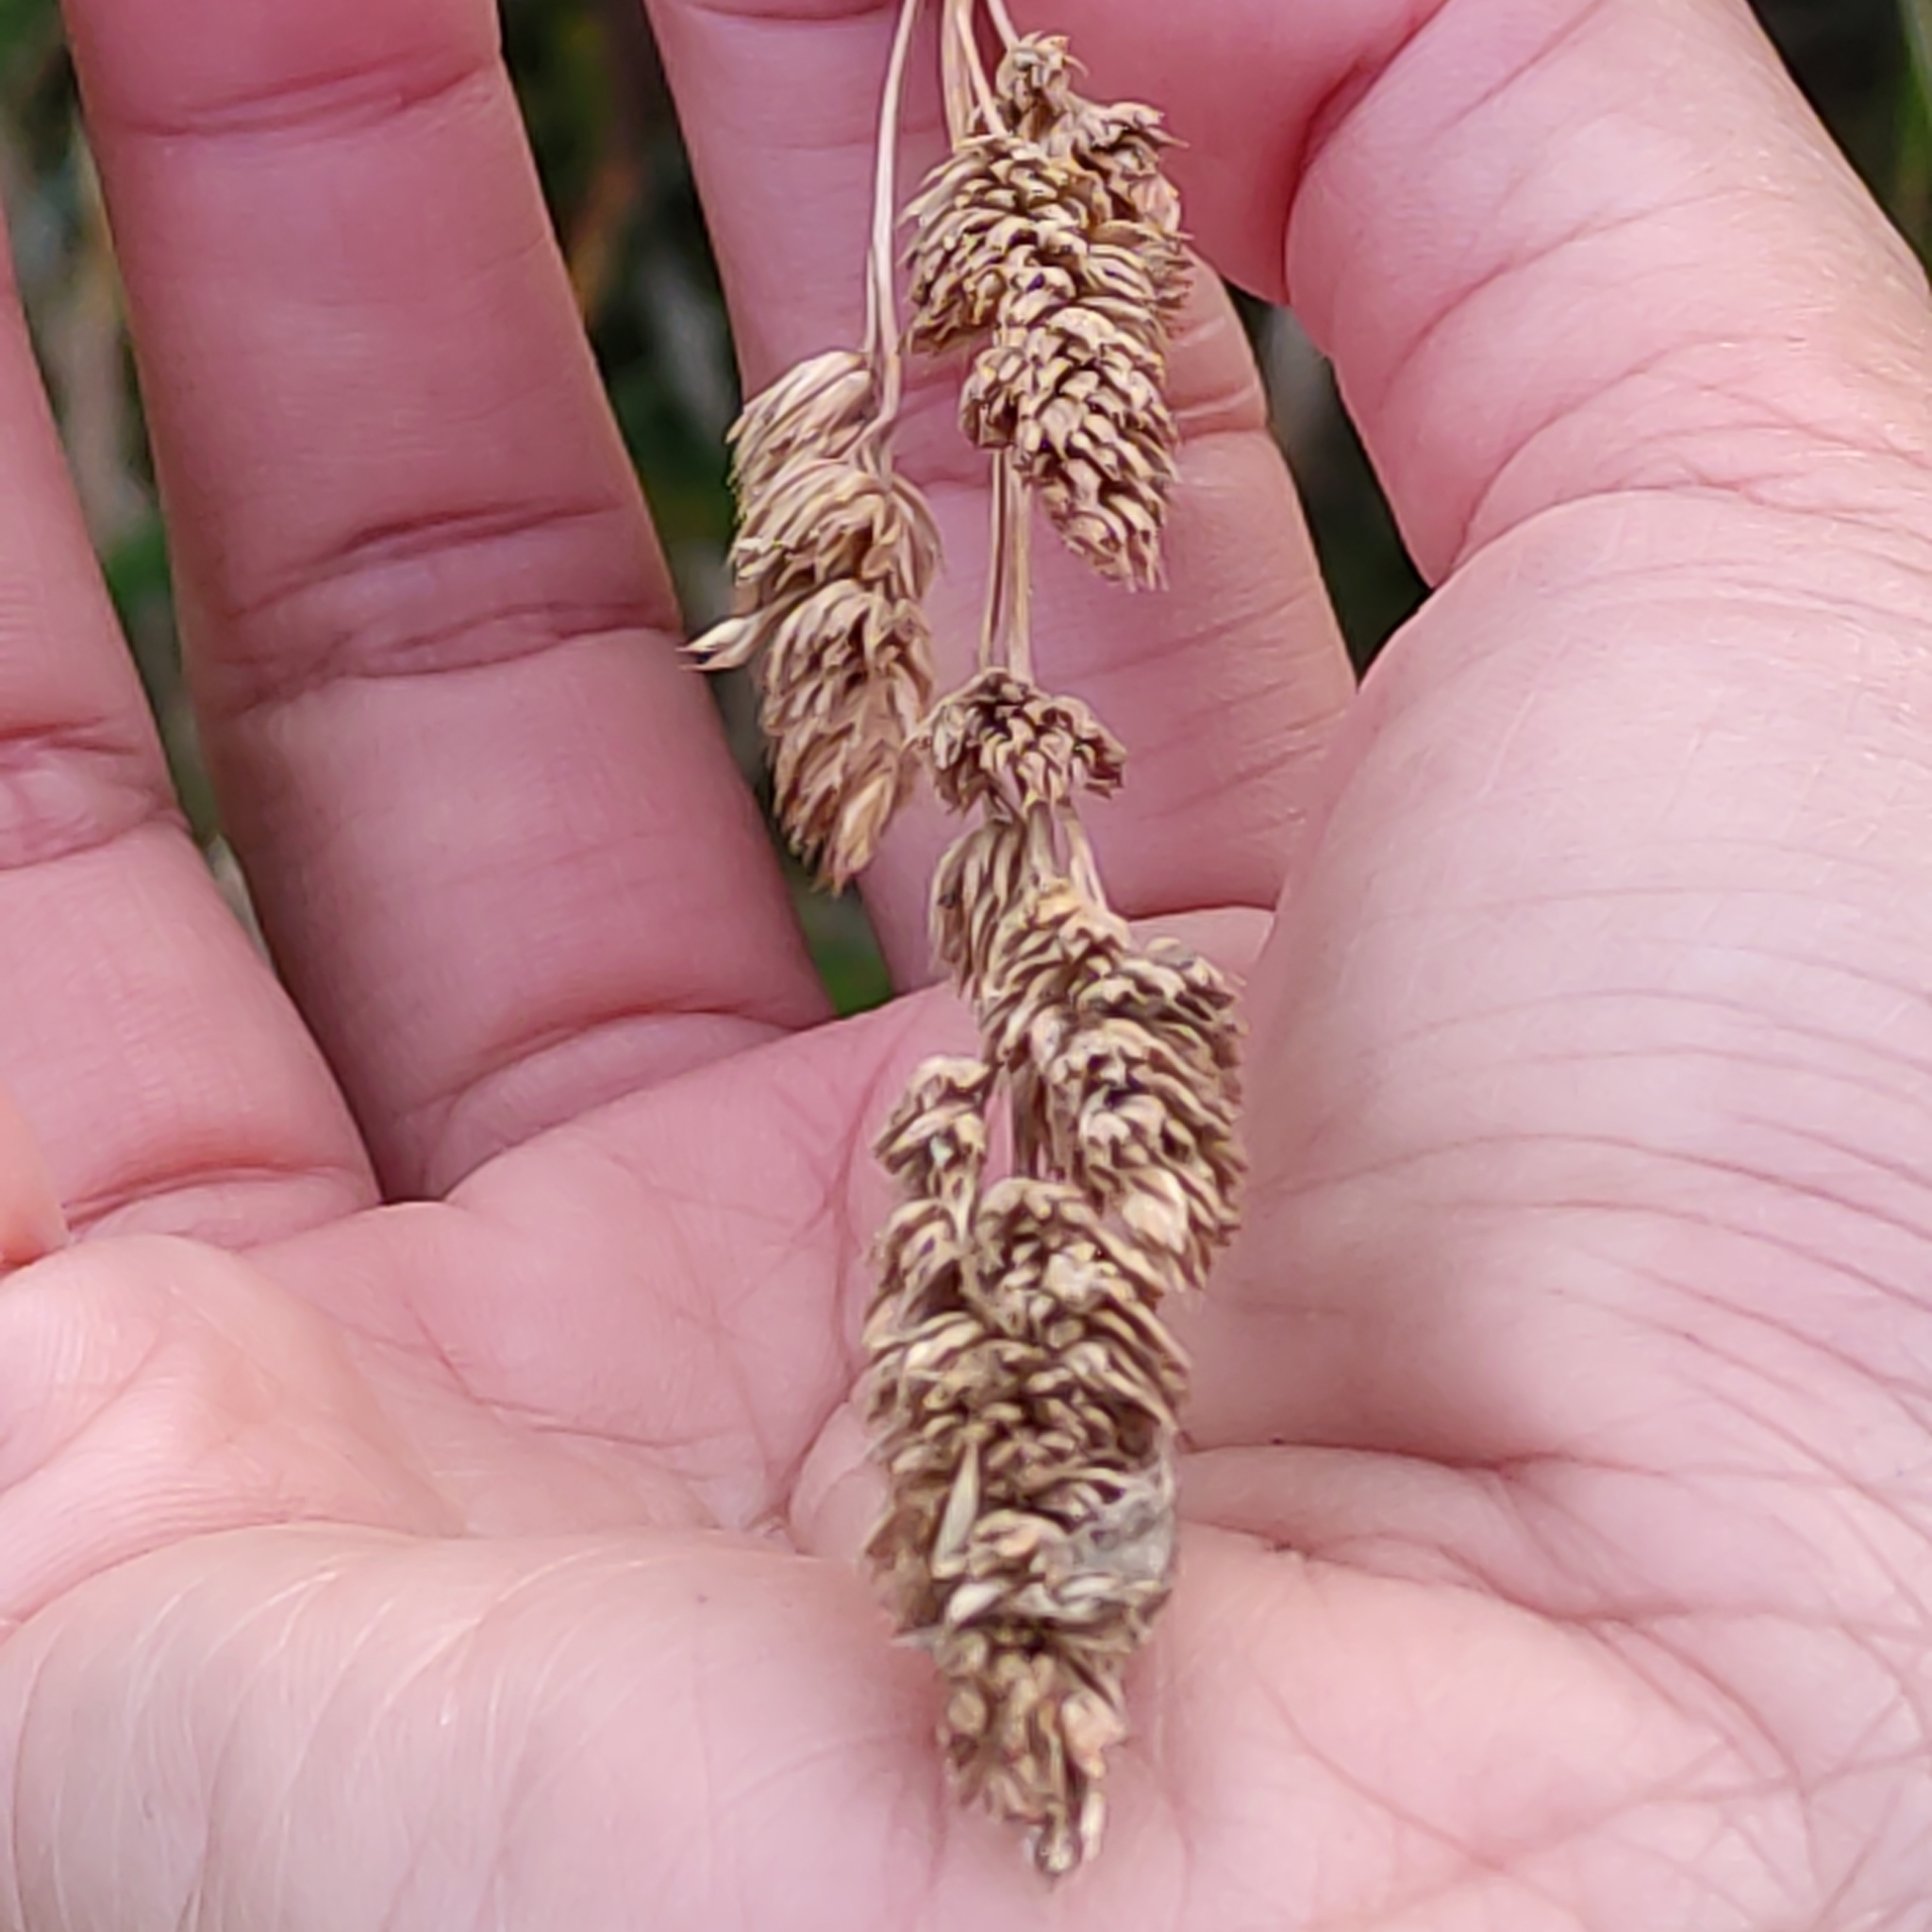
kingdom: Plantae
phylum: Tracheophyta
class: Liliopsida
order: Poales
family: Poaceae
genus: Dactylis
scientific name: Dactylis glomerata
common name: Orchardgrass
